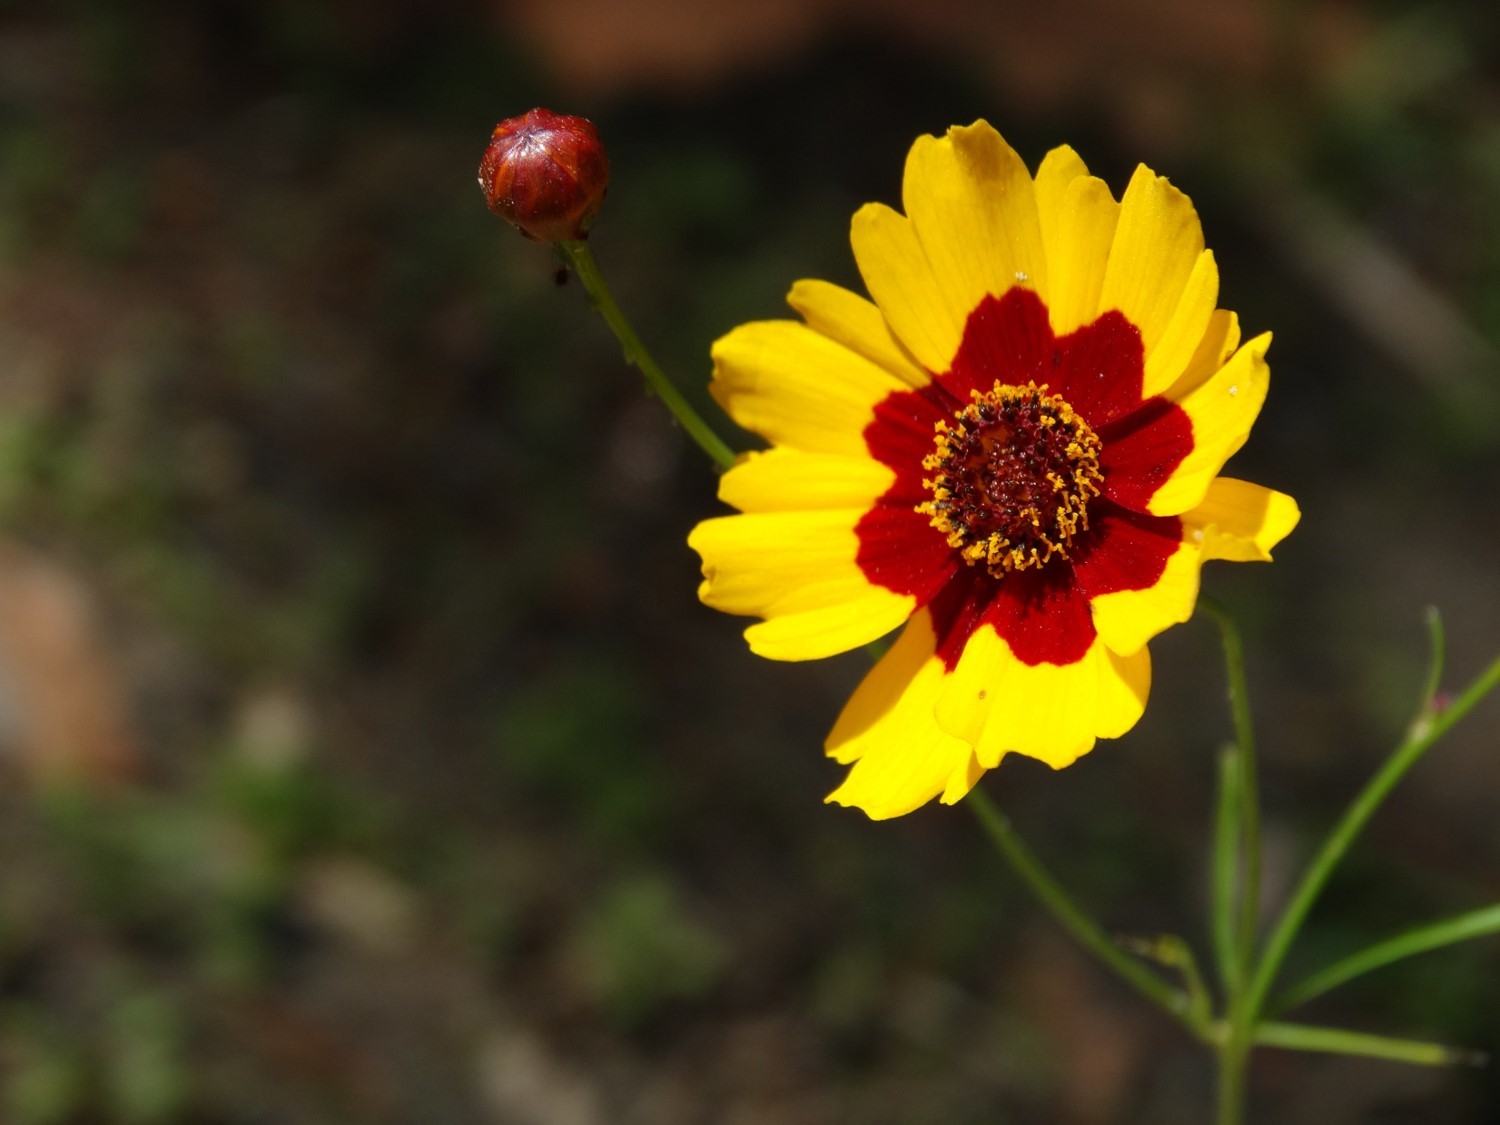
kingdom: Plantae
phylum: Tracheophyta
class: Magnoliopsida
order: Asterales
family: Asteraceae
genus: Coreopsis
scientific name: Coreopsis tinctoria
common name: Garden tickseed
